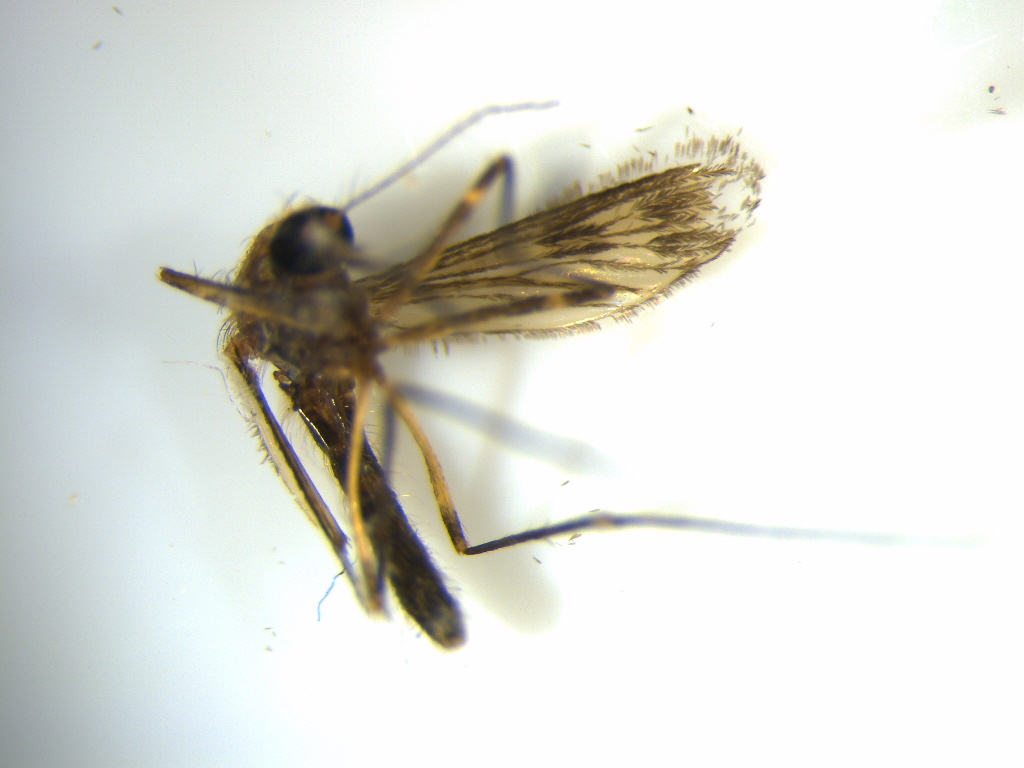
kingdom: Animalia
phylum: Arthropoda
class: Insecta
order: Diptera
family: Culicidae
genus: Culiseta
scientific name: Culiseta tonnoiri
